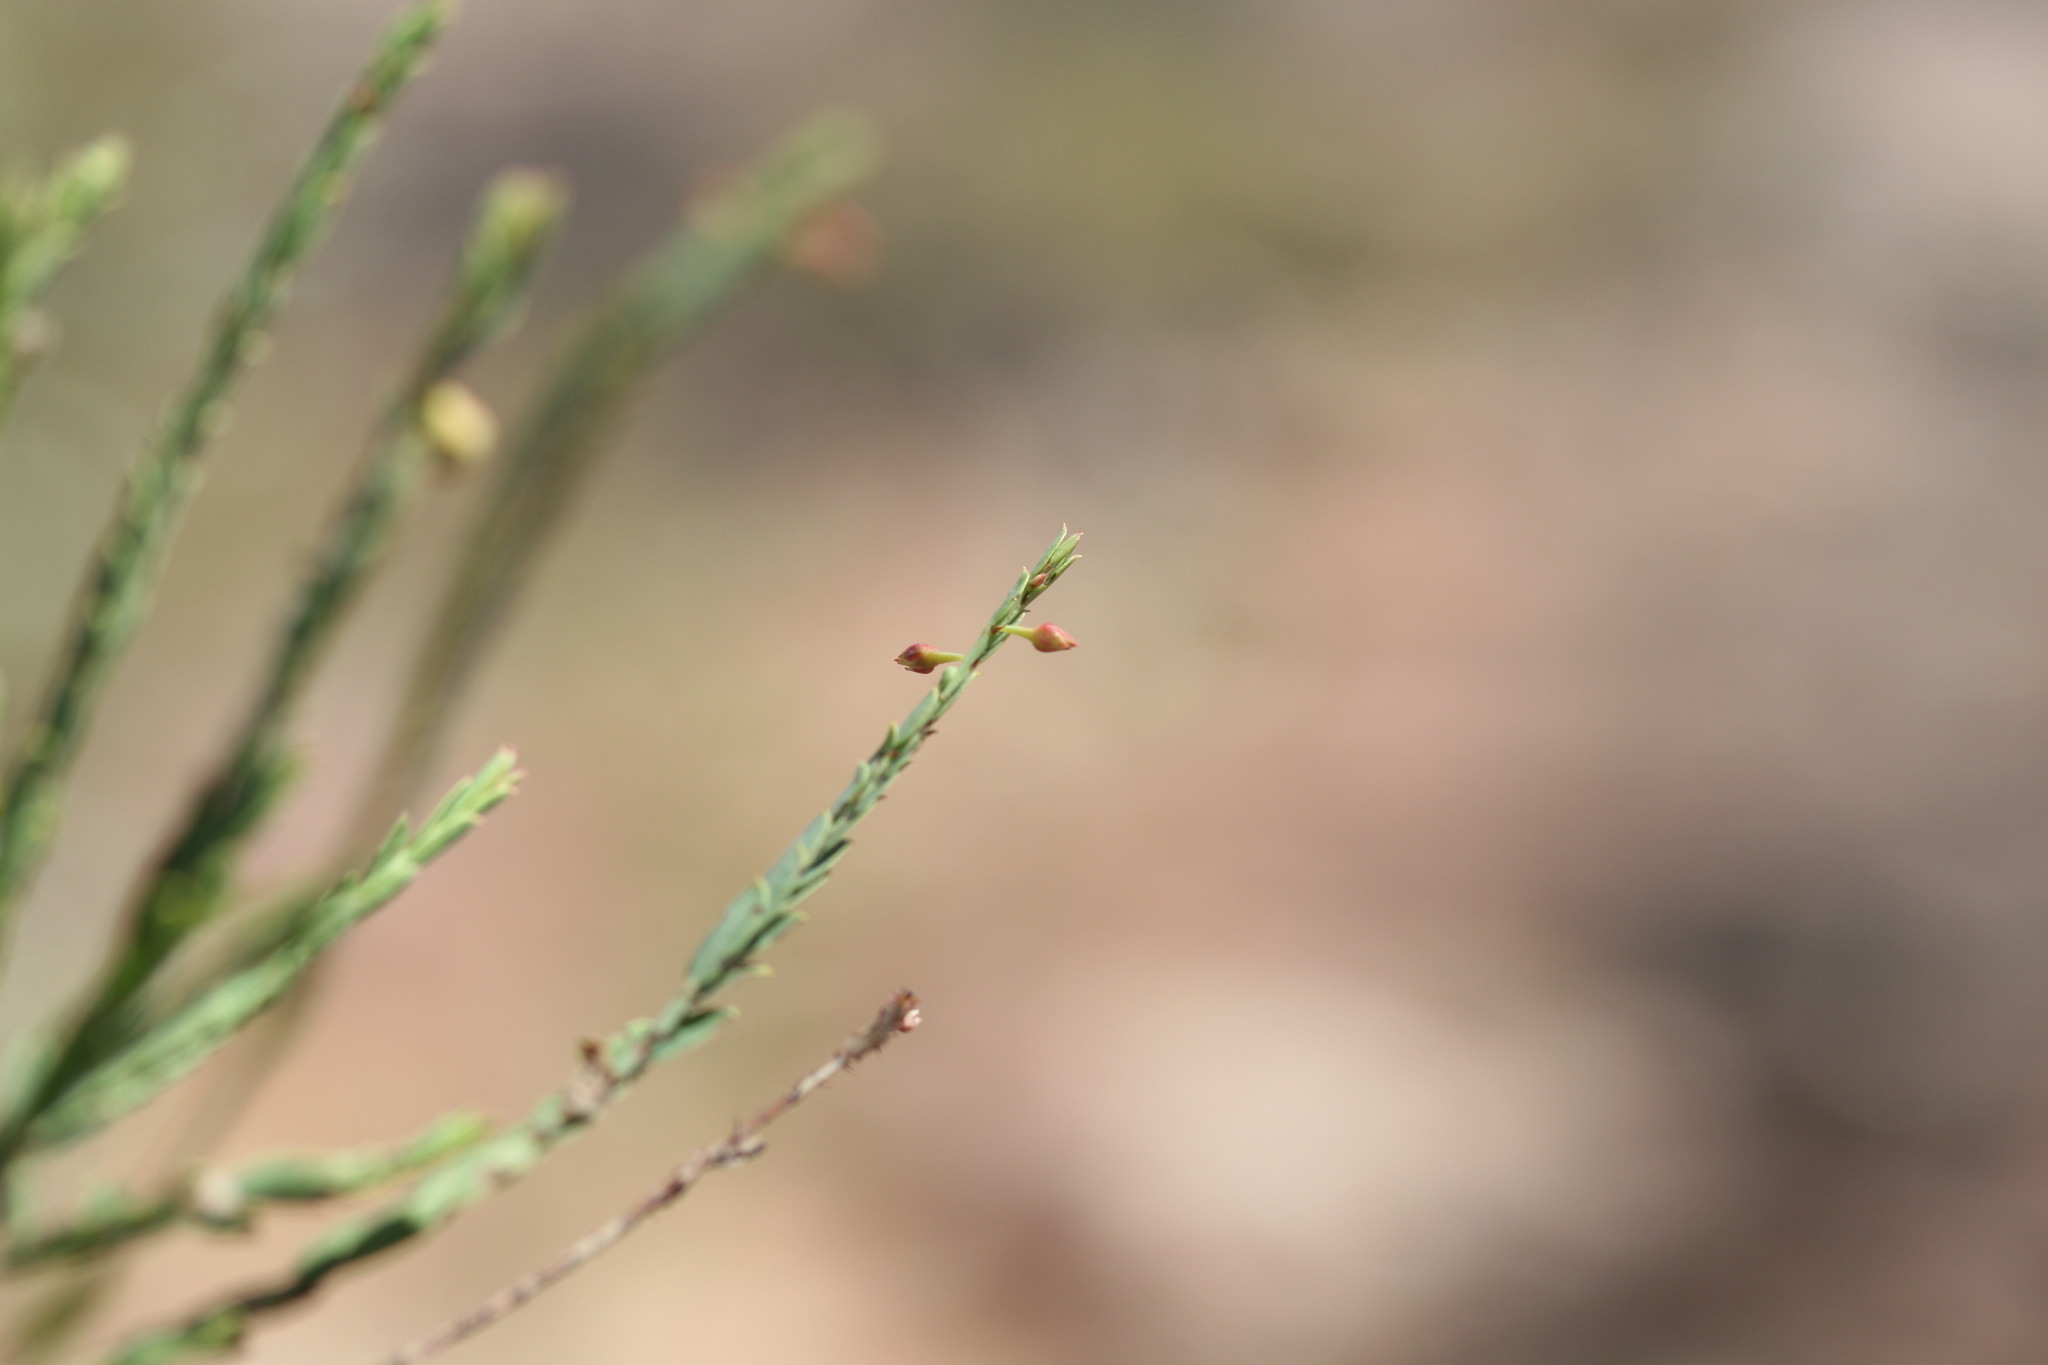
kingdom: Plantae
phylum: Tracheophyta
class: Magnoliopsida
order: Malpighiales
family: Phyllanthaceae
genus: Phyllanthus
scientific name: Phyllanthus aridus
